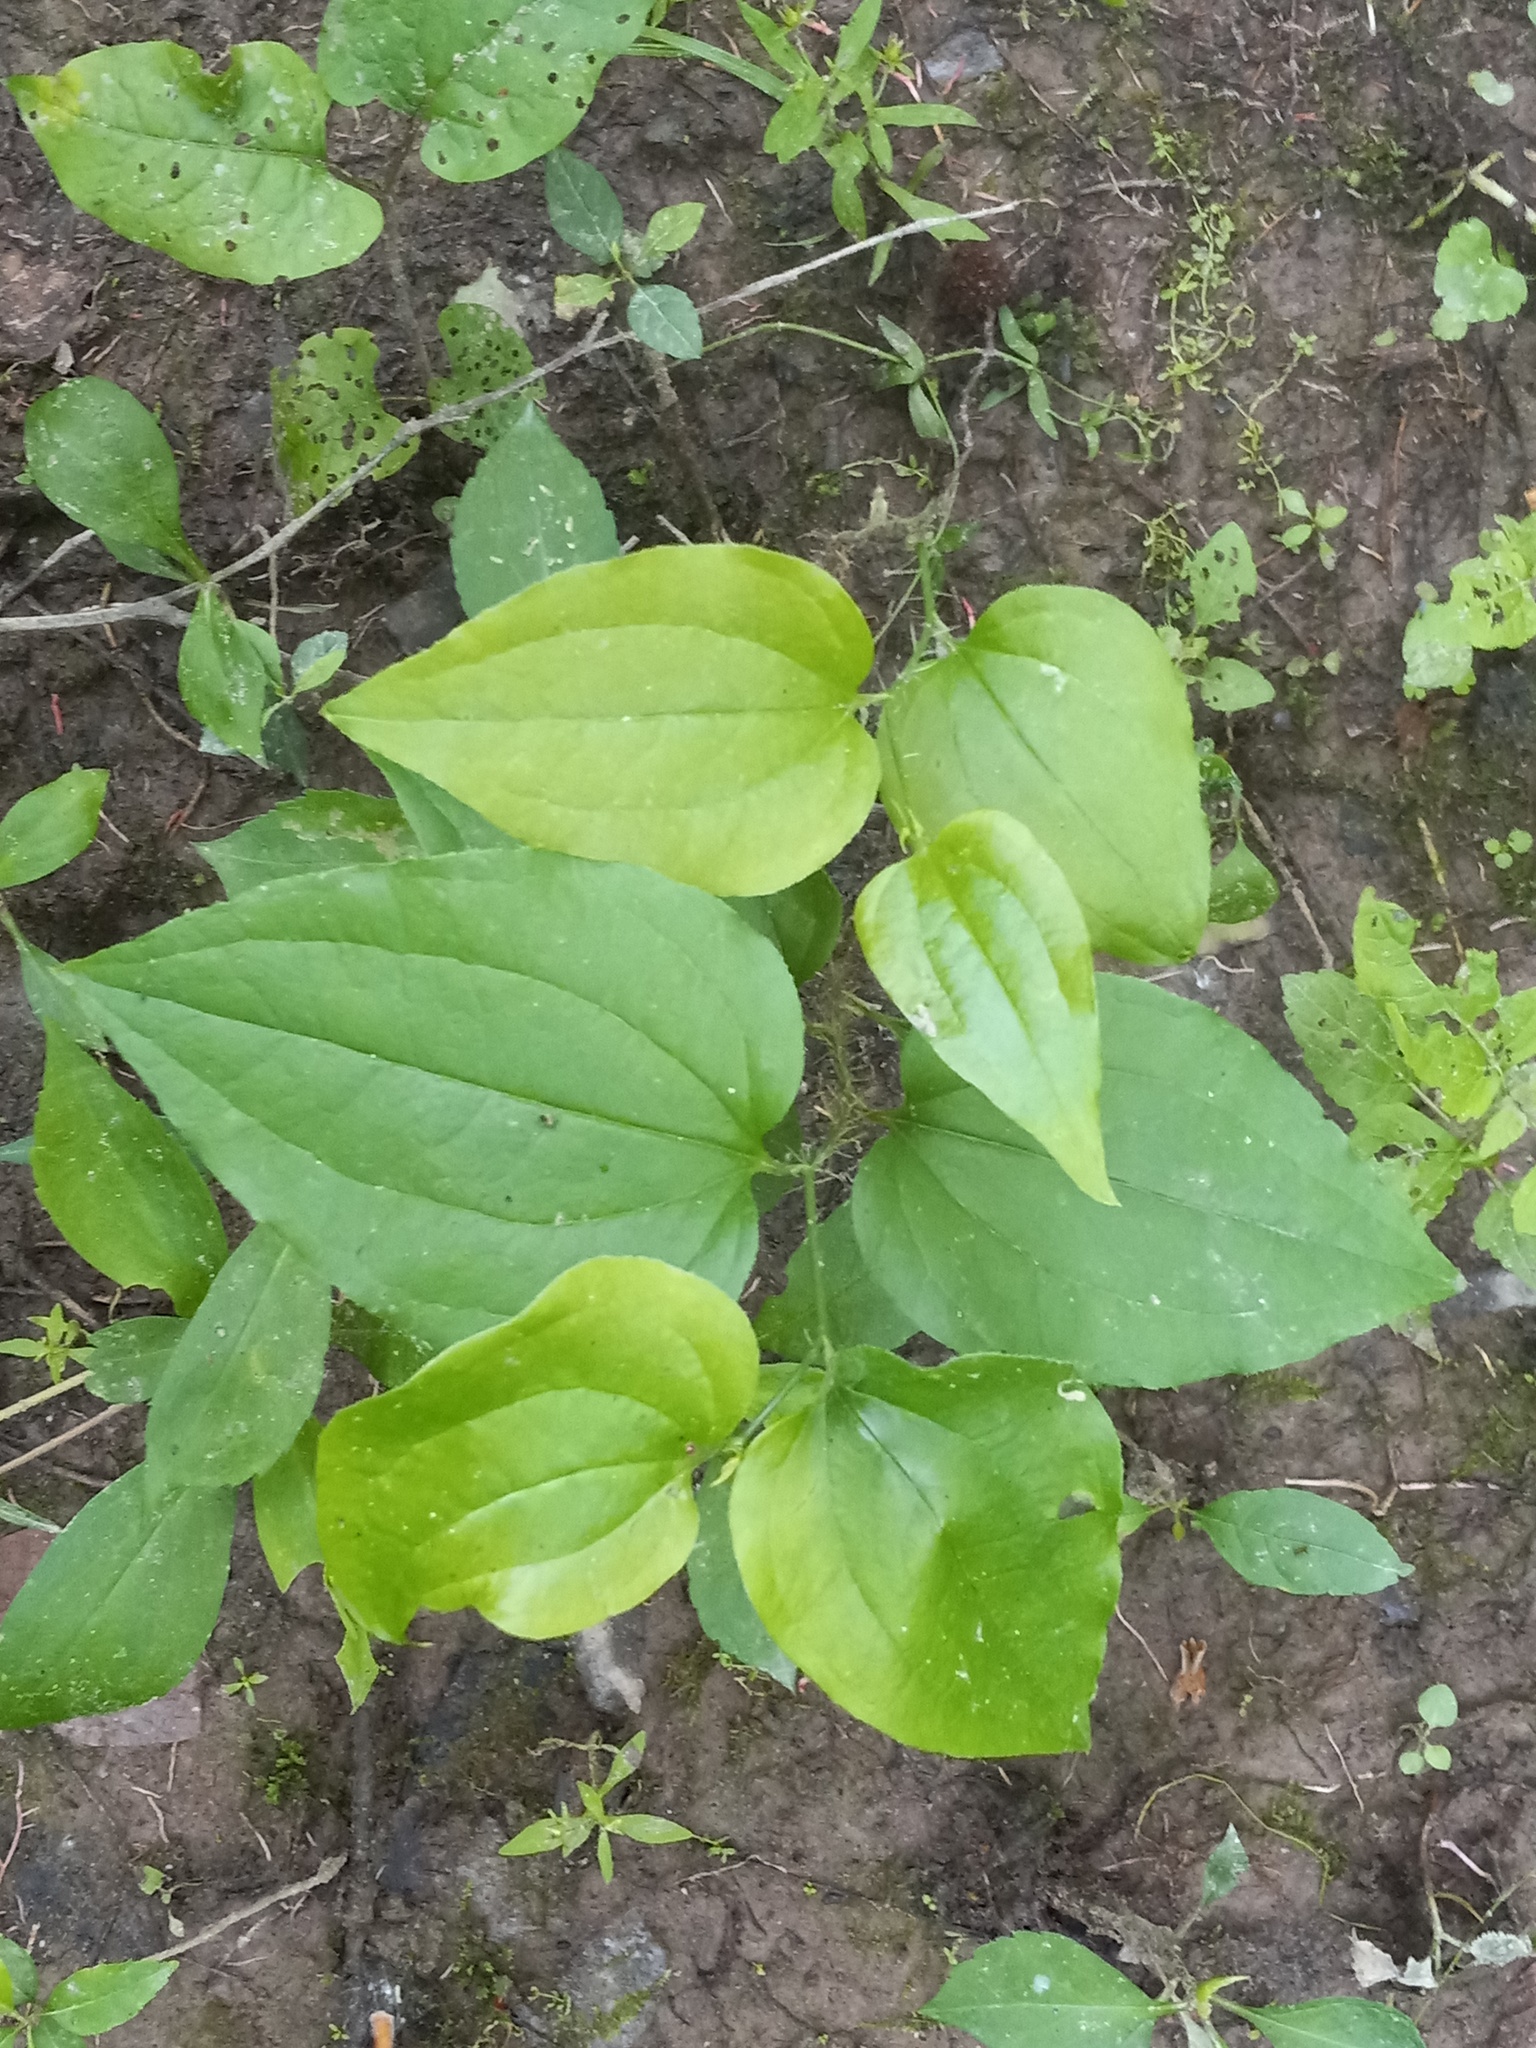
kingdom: Plantae
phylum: Tracheophyta
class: Liliopsida
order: Liliales
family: Smilacaceae
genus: Smilax
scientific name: Smilax tamnoides
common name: Hellfetter
